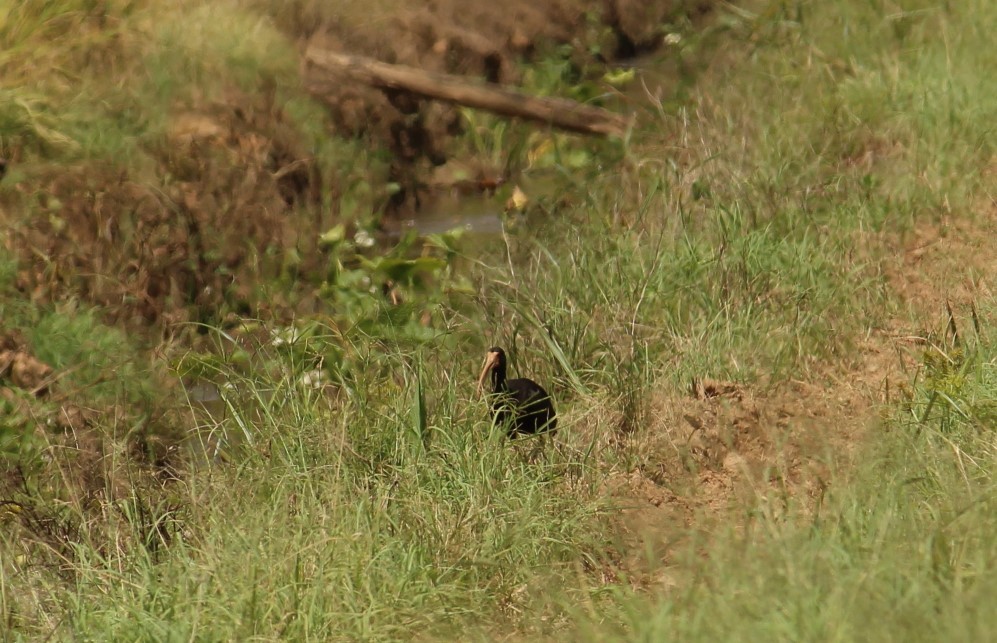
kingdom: Animalia
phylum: Chordata
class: Aves
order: Pelecaniformes
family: Threskiornithidae
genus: Phimosus
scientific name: Phimosus infuscatus
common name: Bare-faced ibis
